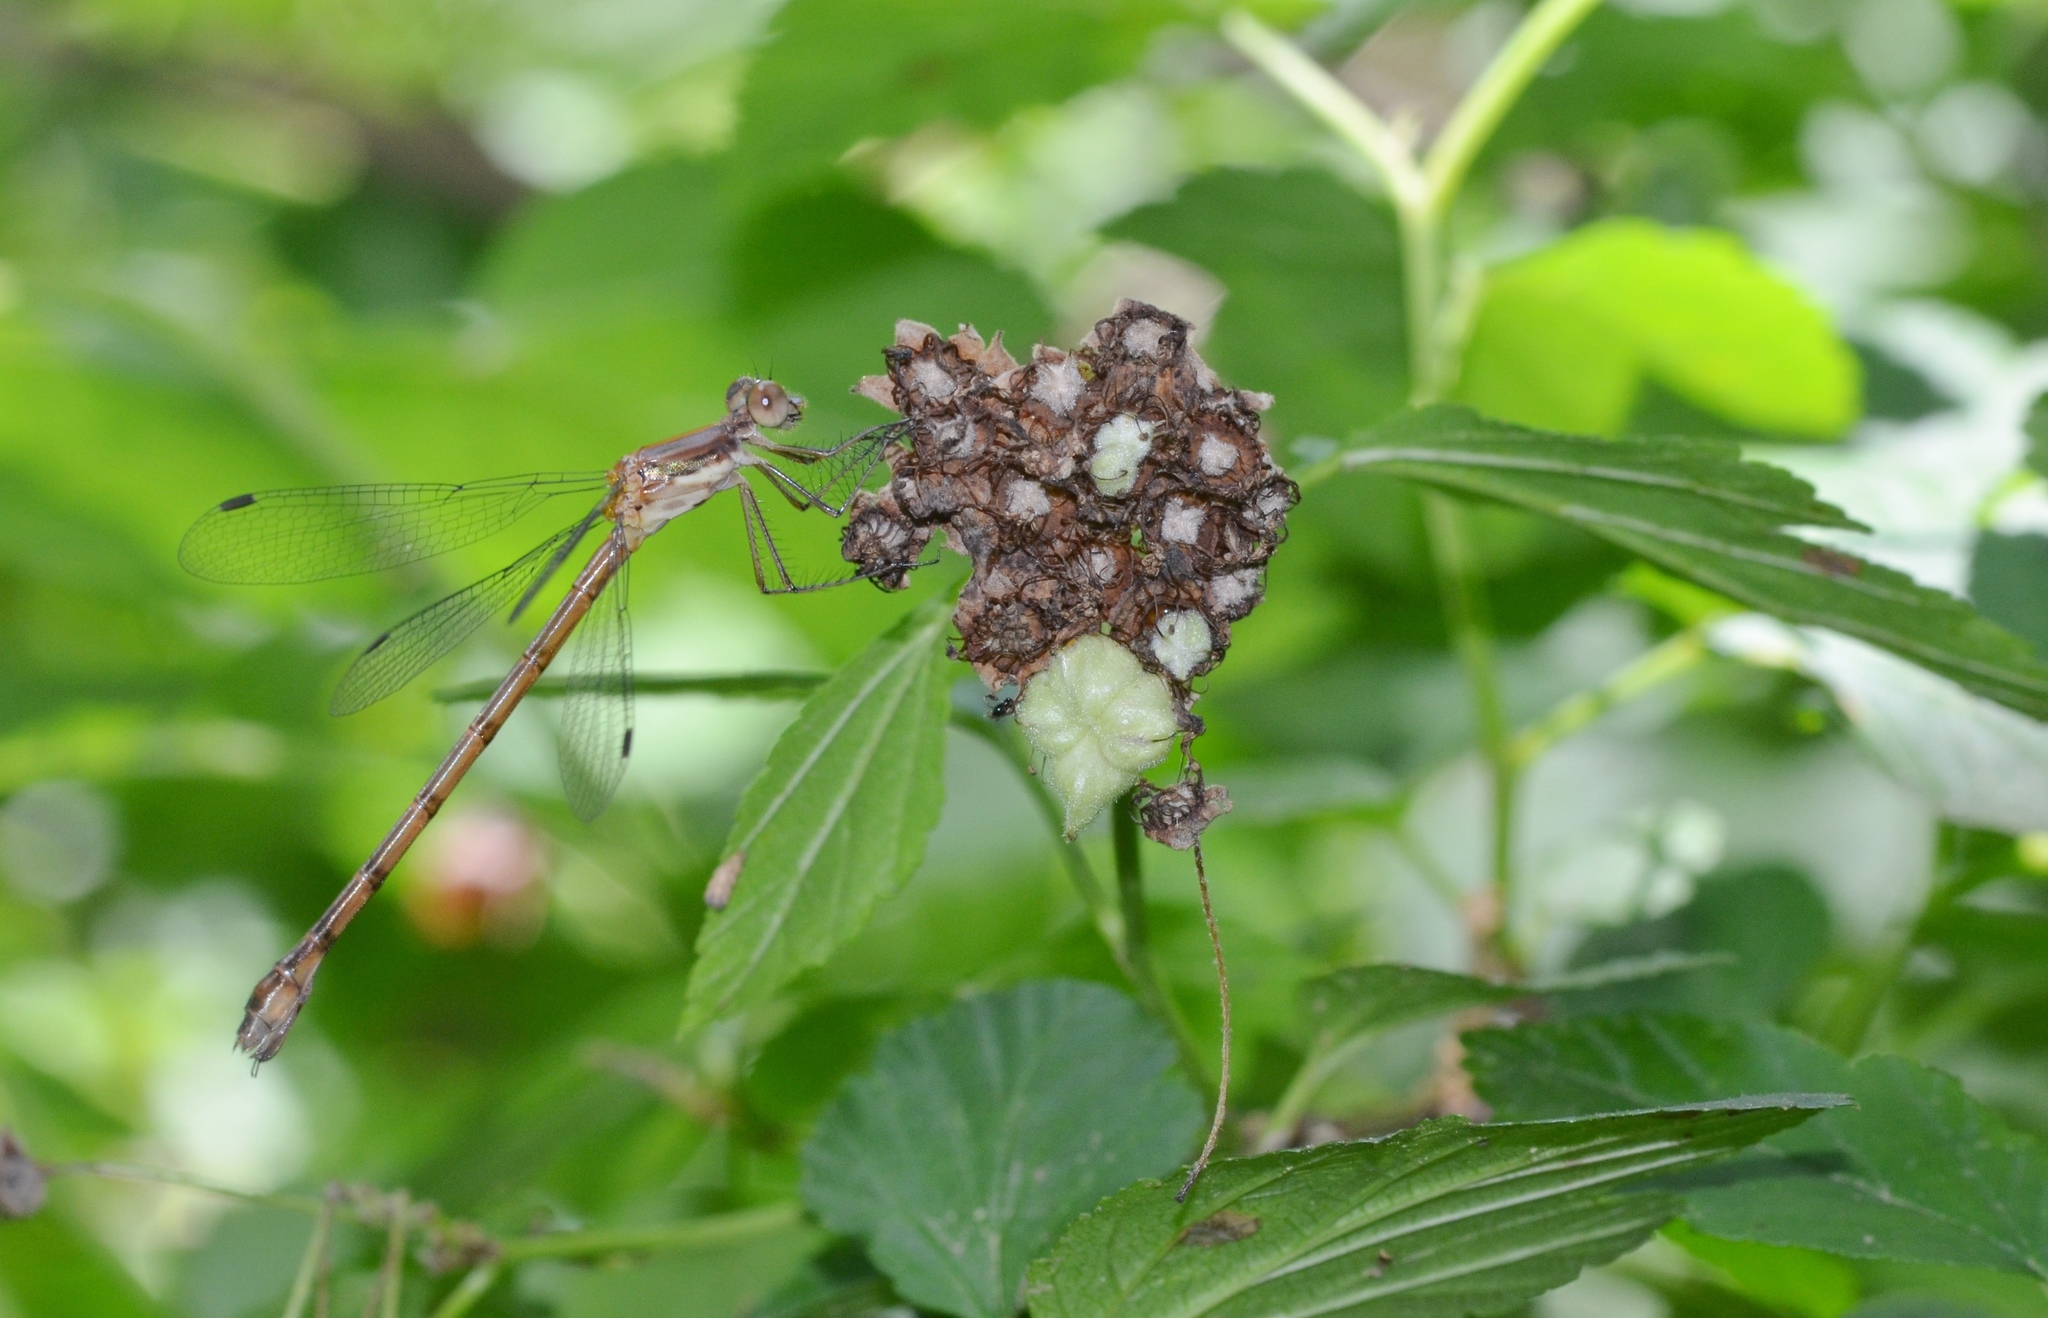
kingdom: Animalia
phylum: Arthropoda
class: Insecta
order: Odonata
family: Lestidae
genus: Lestes
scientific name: Lestes forcipatus
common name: Sweetflag spreadwing
